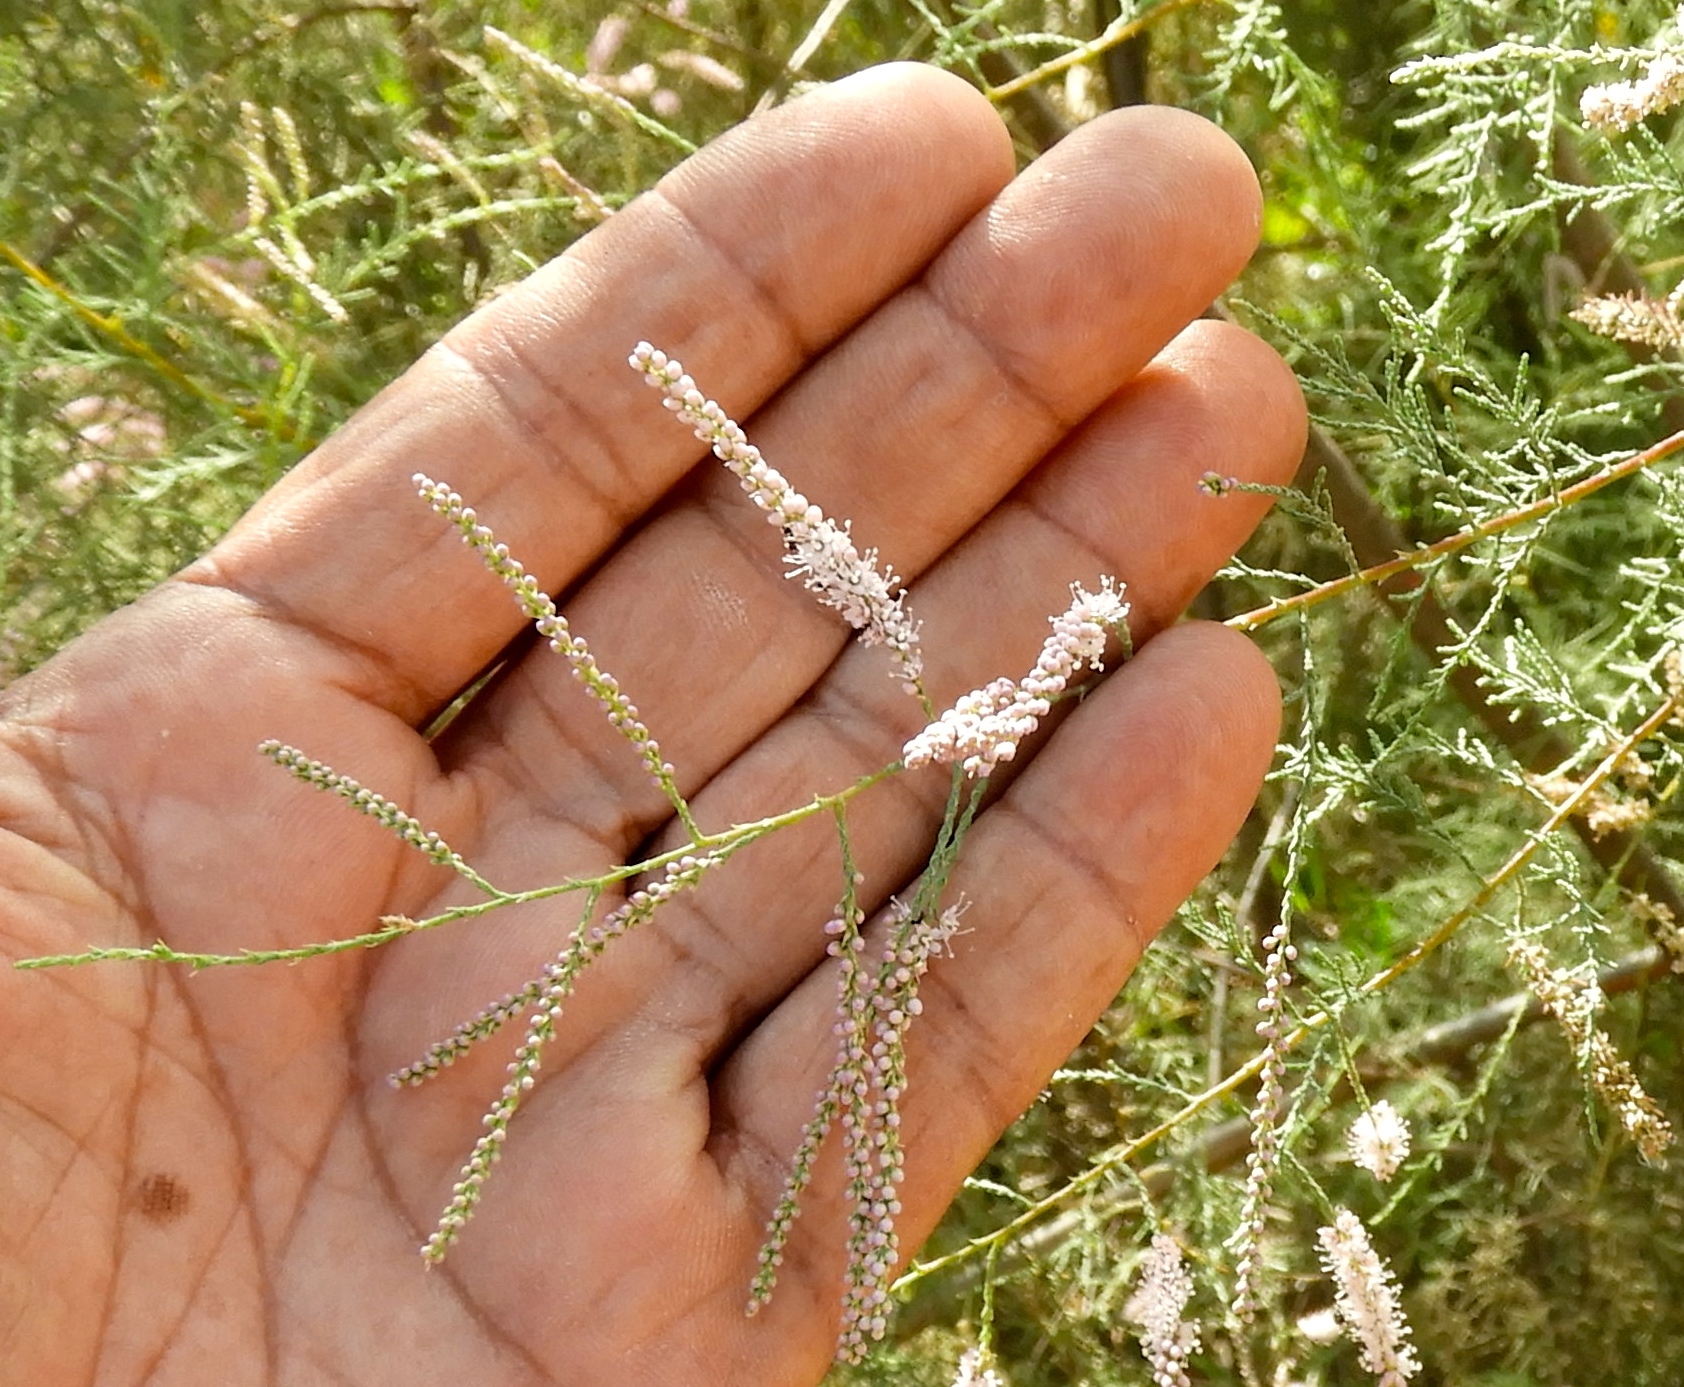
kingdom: Plantae
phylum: Tracheophyta
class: Magnoliopsida
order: Caryophyllales
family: Tamaricaceae
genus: Tamarix
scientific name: Tamarix
